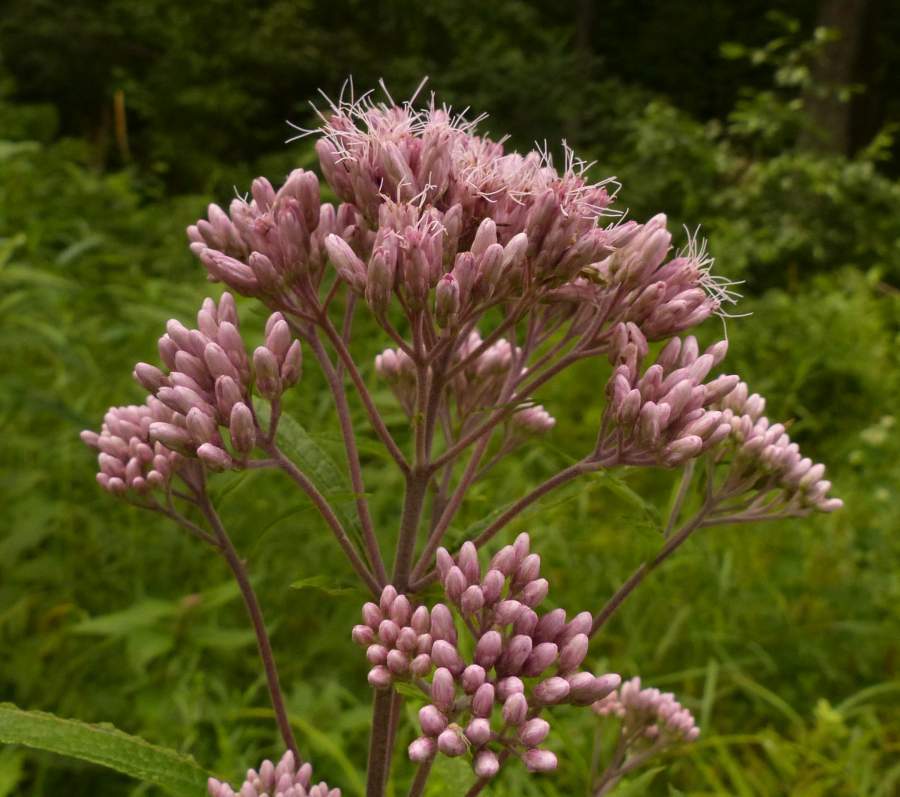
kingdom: Plantae
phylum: Tracheophyta
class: Magnoliopsida
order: Asterales
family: Asteraceae
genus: Eutrochium
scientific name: Eutrochium maculatum
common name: Spotted joe pye weed
